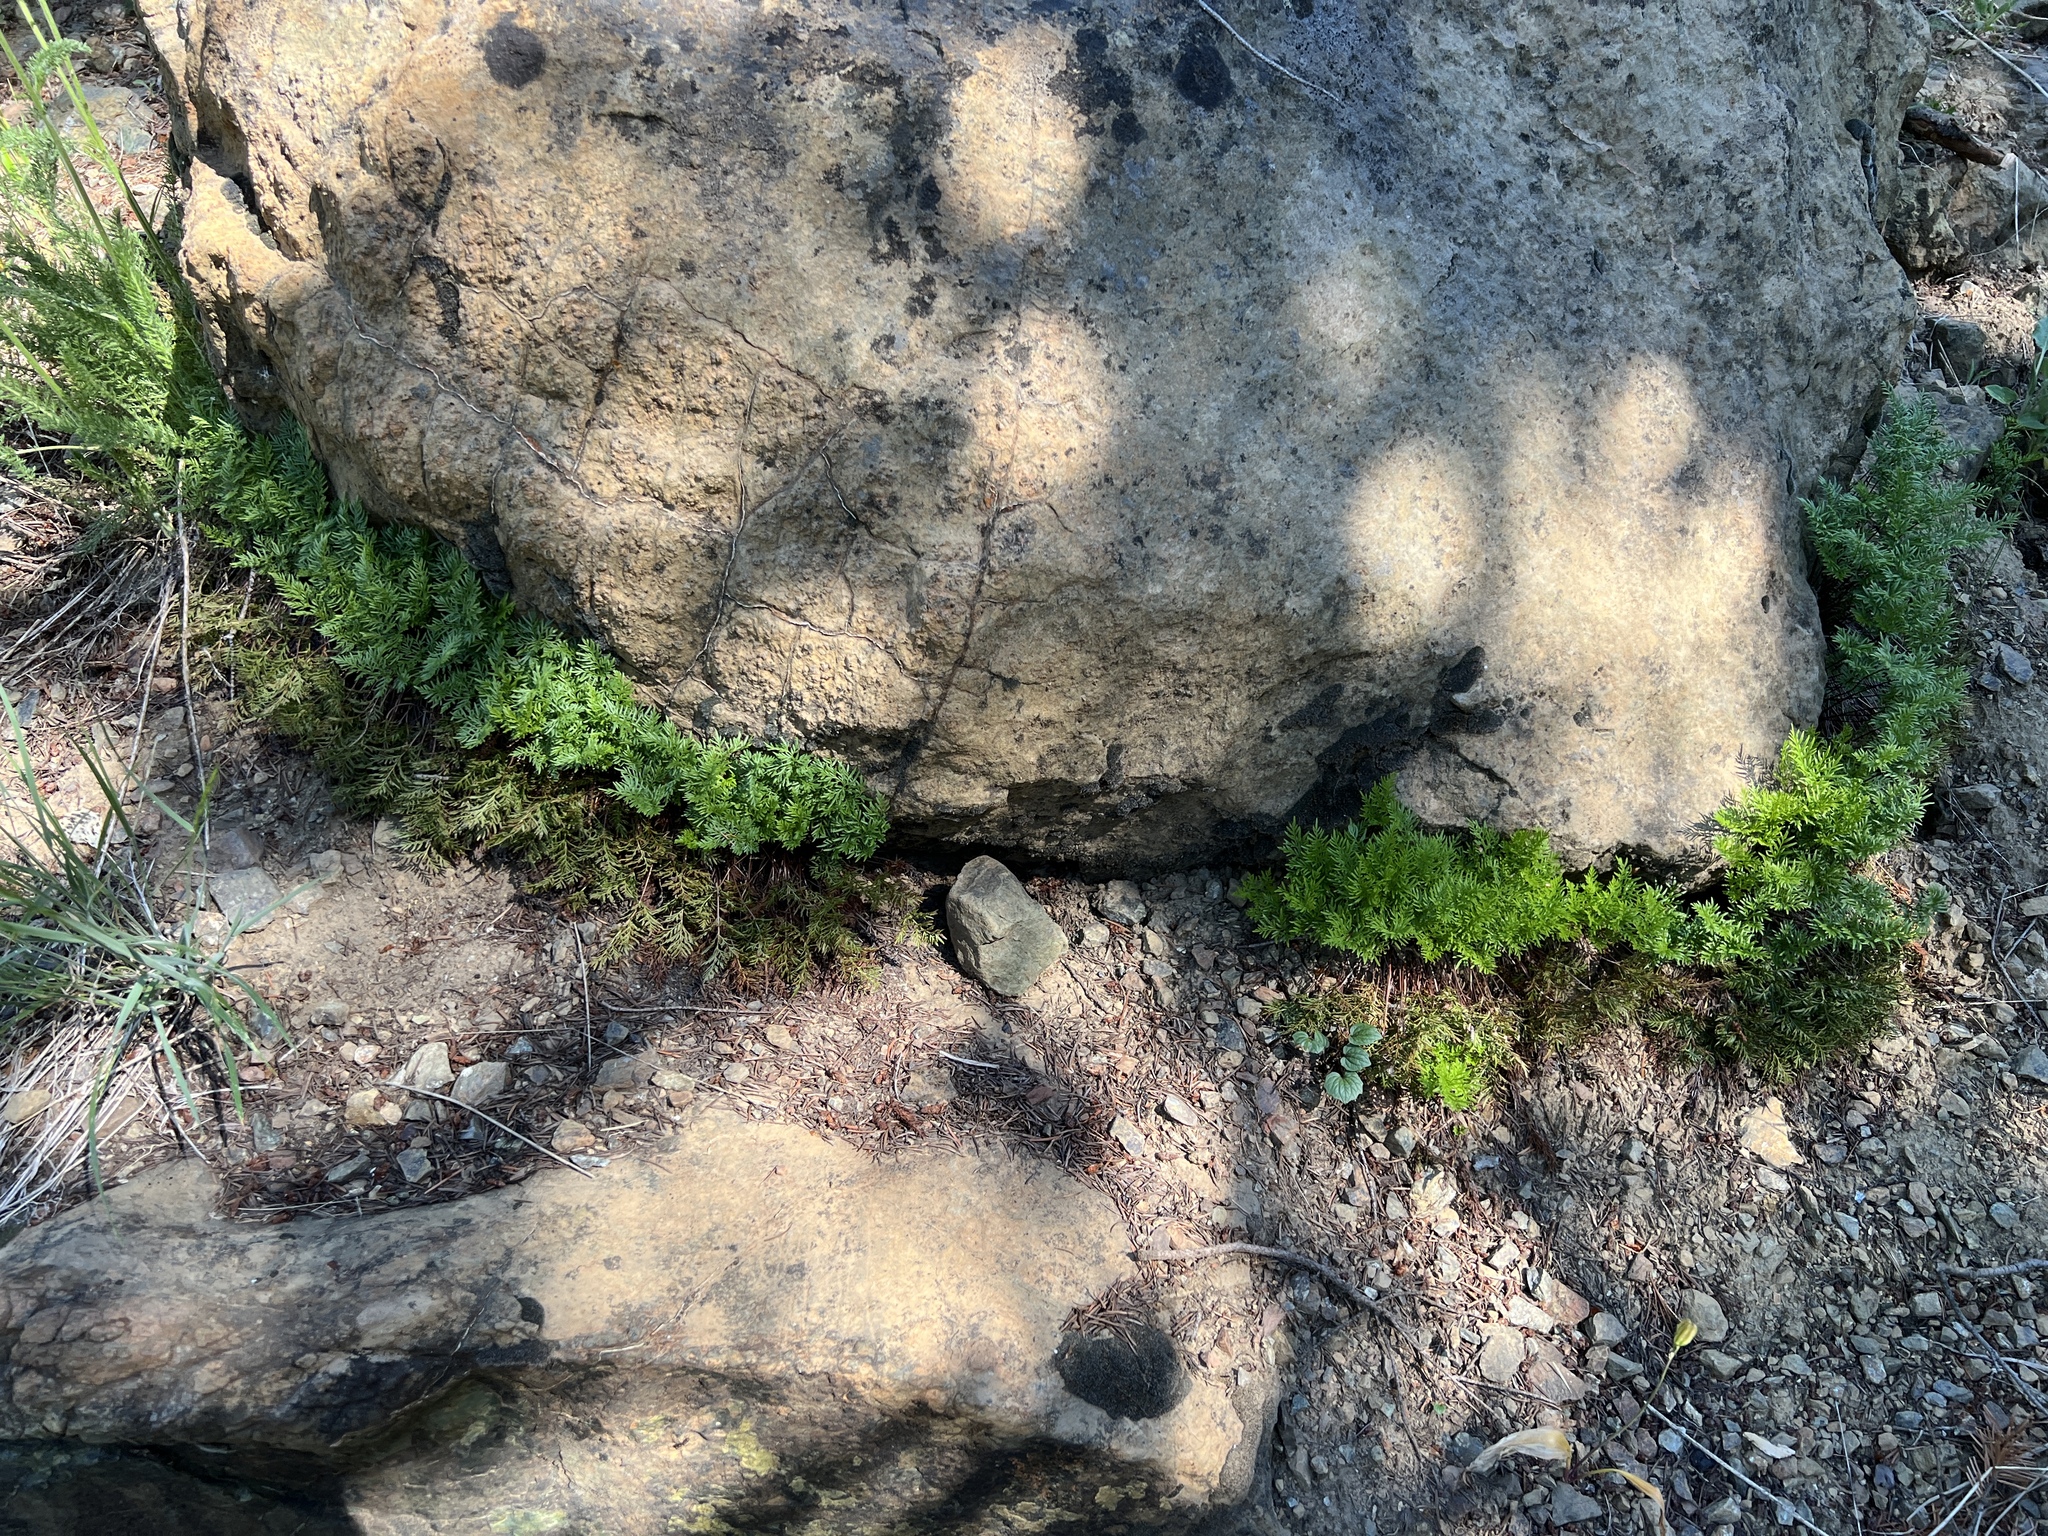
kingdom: Plantae
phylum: Tracheophyta
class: Polypodiopsida
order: Polypodiales
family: Pteridaceae
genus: Aspidotis
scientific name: Aspidotis densa
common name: Indian's dream
